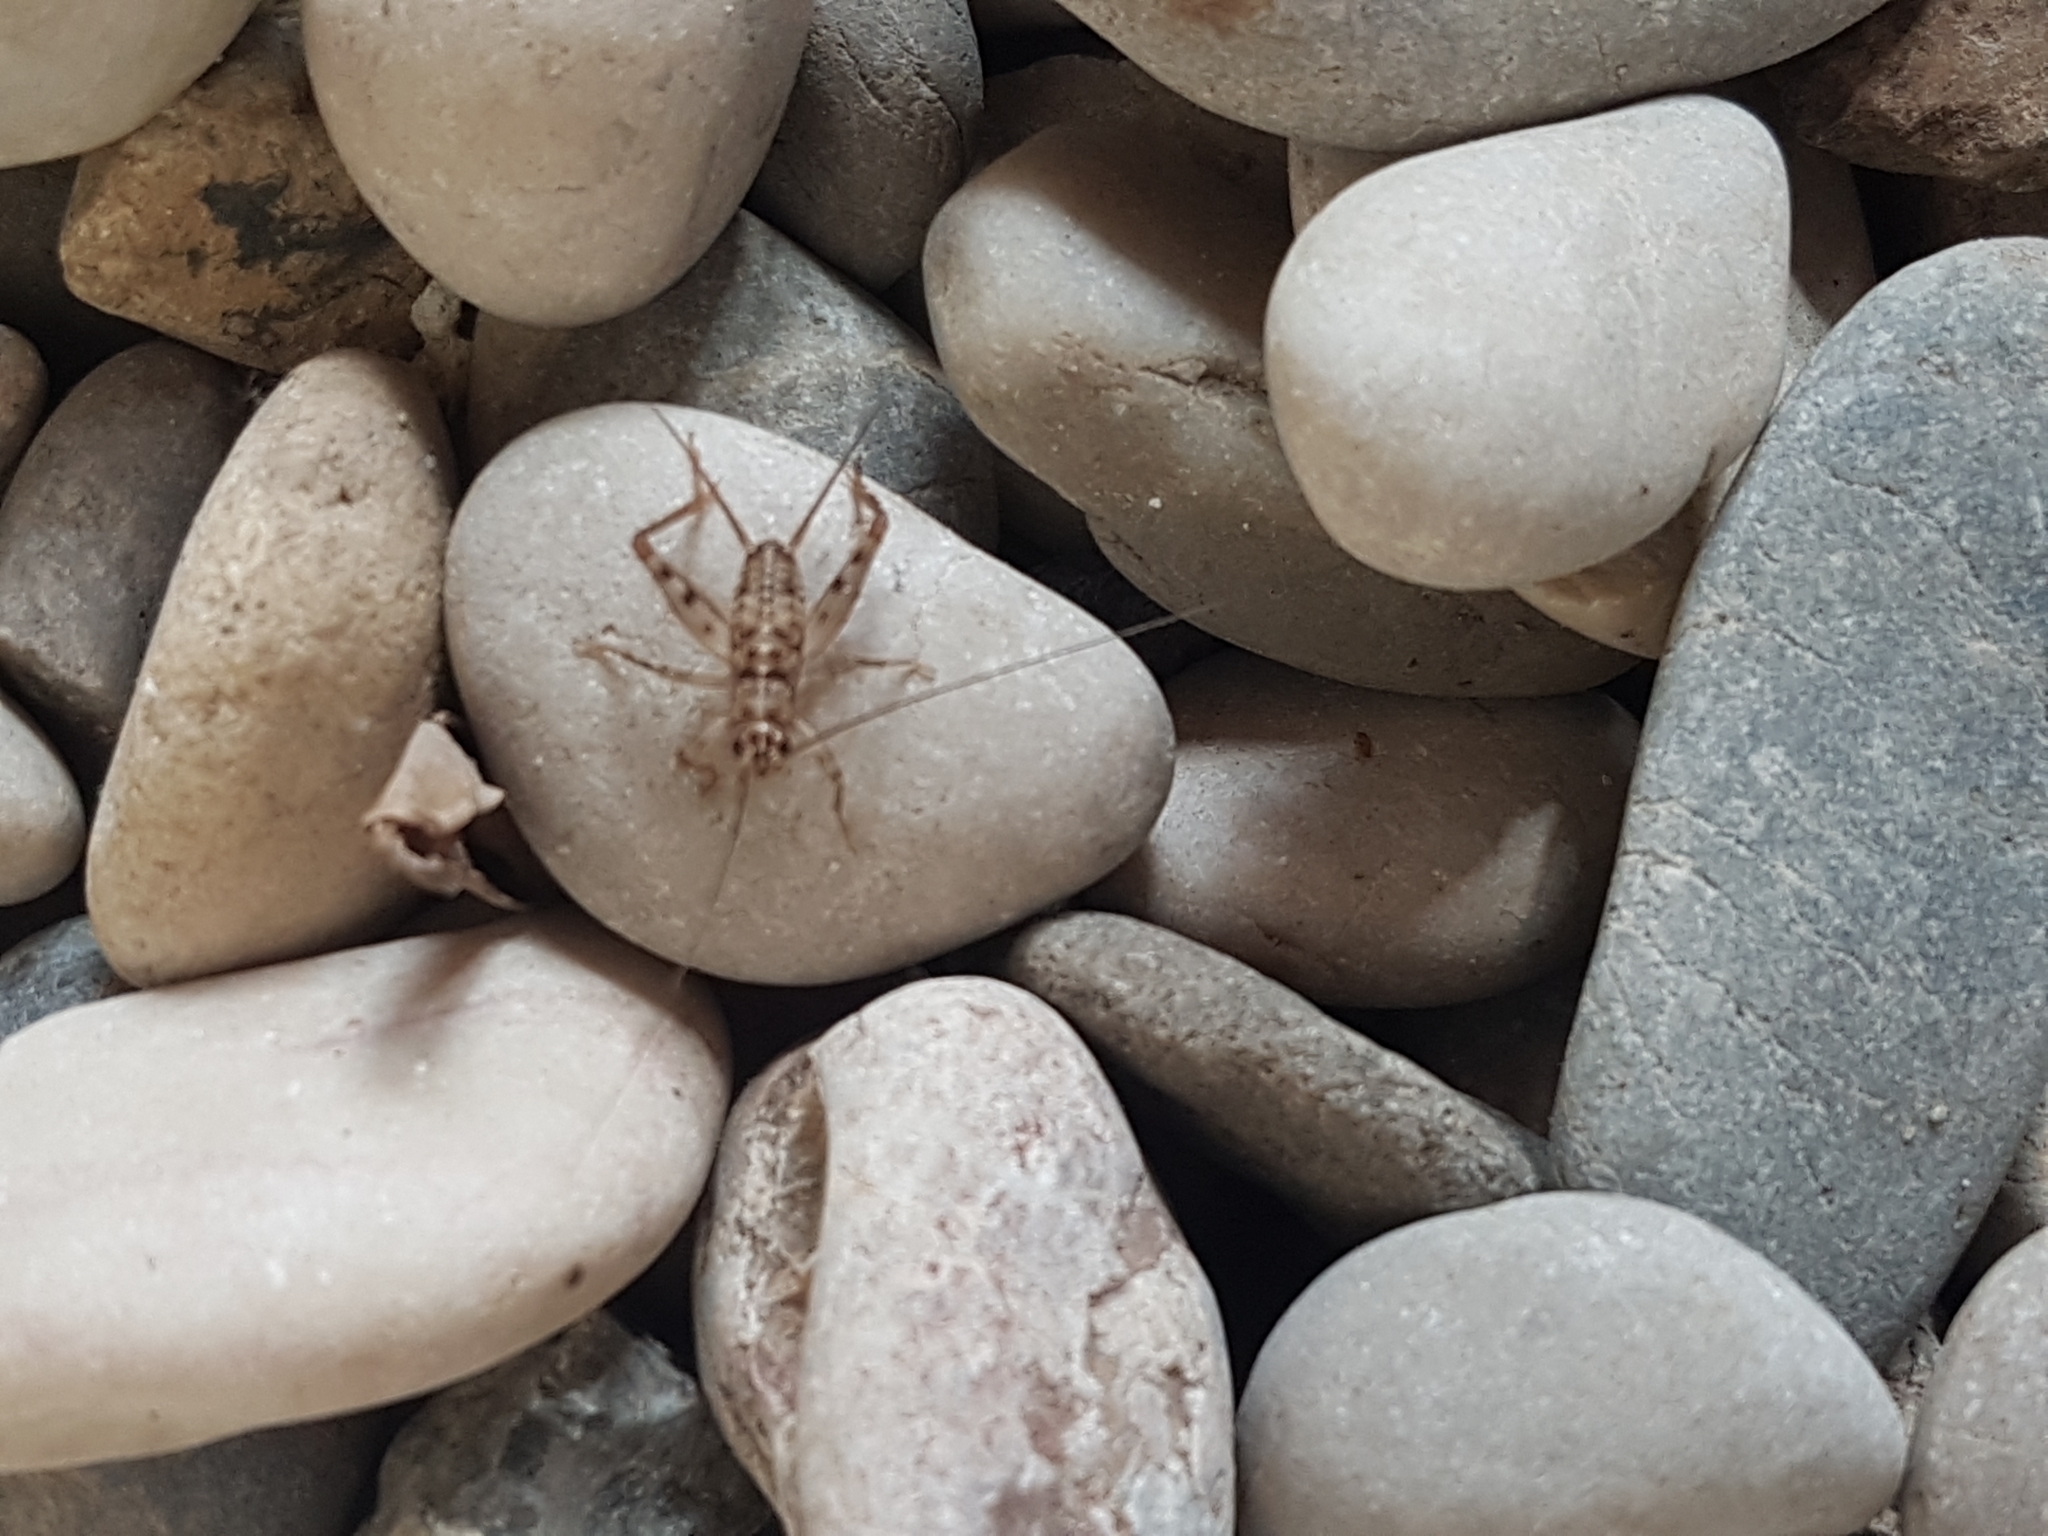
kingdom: Animalia
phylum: Arthropoda
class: Insecta
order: Orthoptera
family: Gryllidae
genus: Gryllomorpha
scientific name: Gryllomorpha dalmatina
